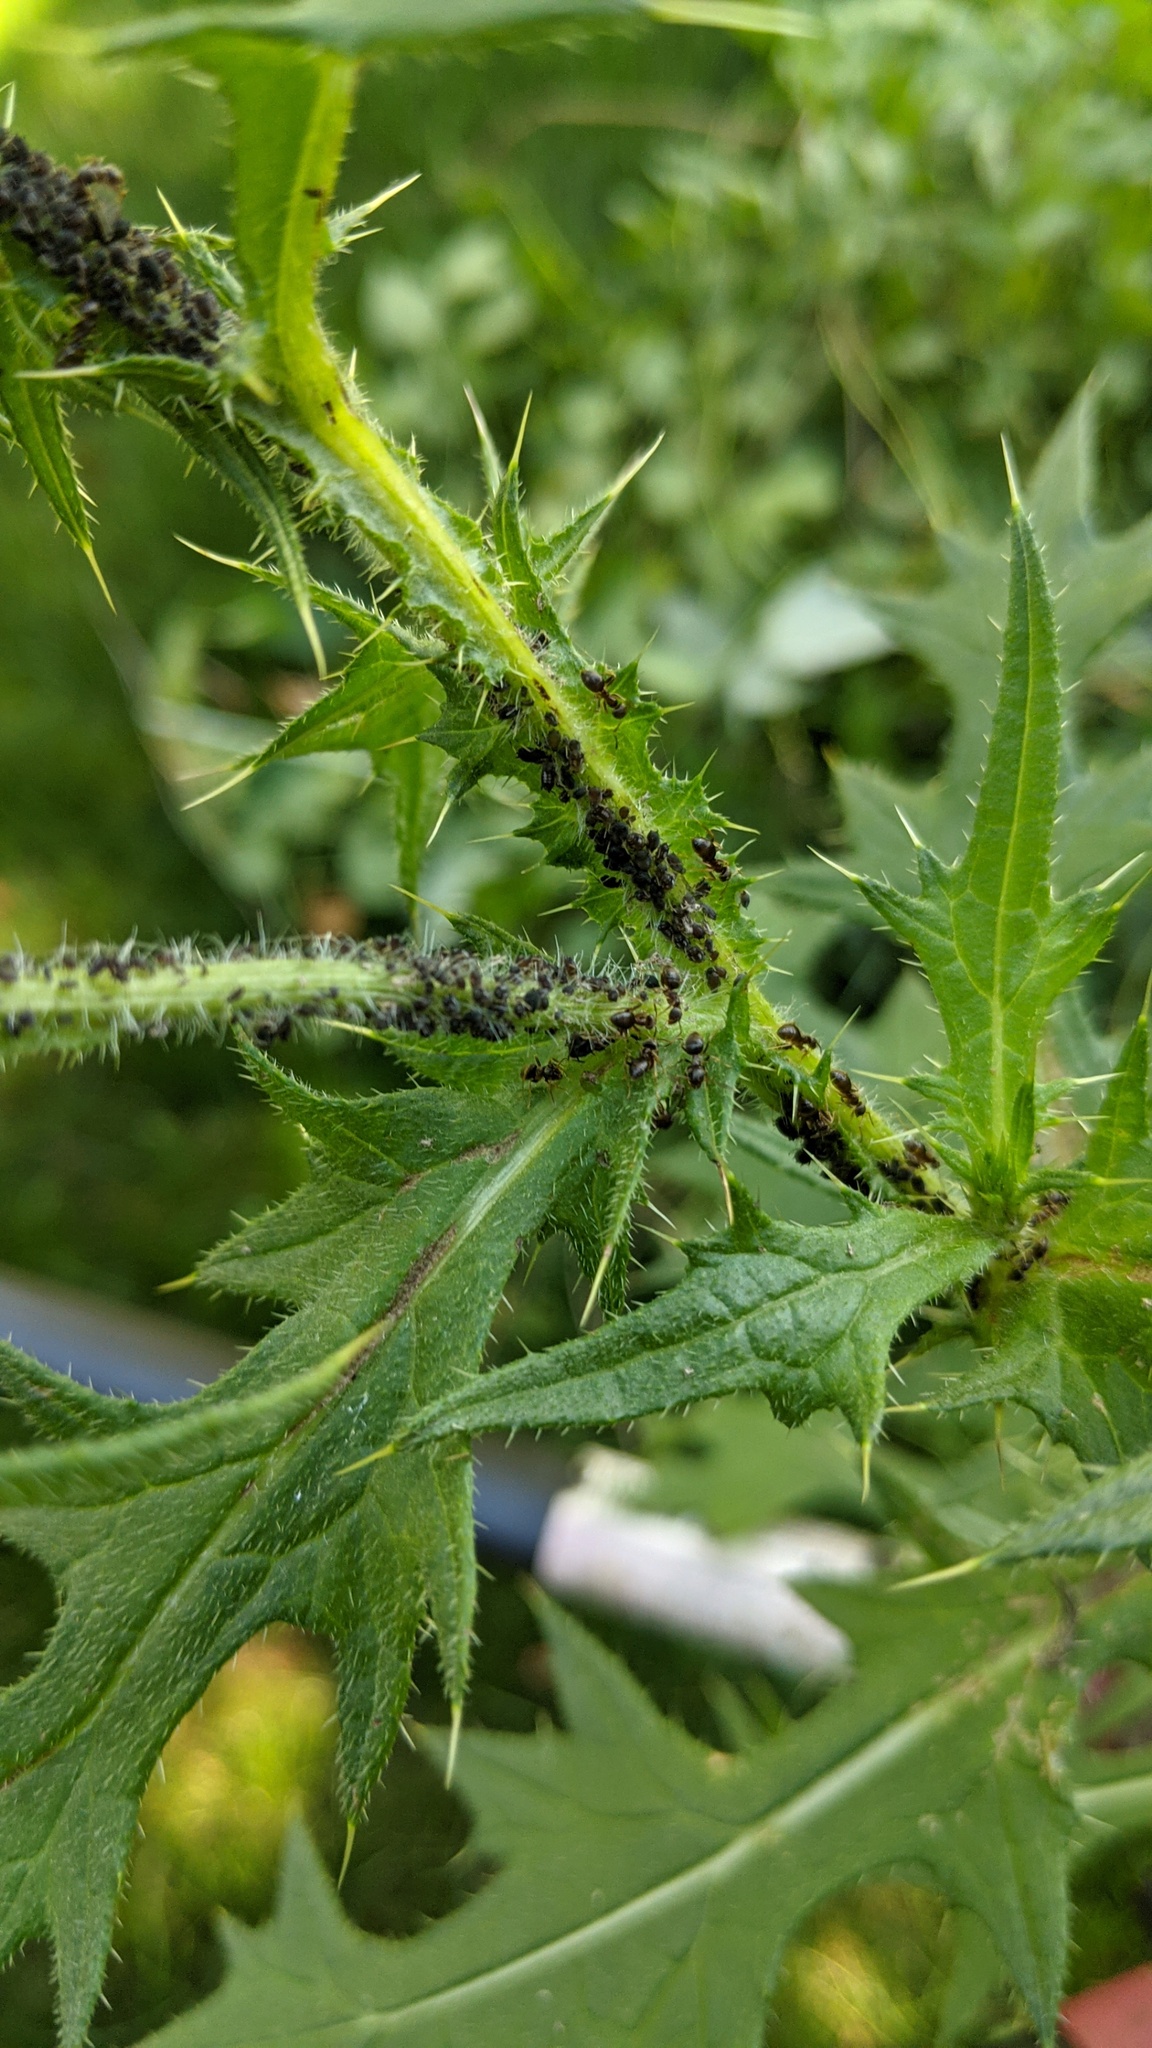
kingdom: Plantae
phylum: Tracheophyta
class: Magnoliopsida
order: Asterales
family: Asteraceae
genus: Cirsium
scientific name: Cirsium vulgare
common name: Bull thistle
